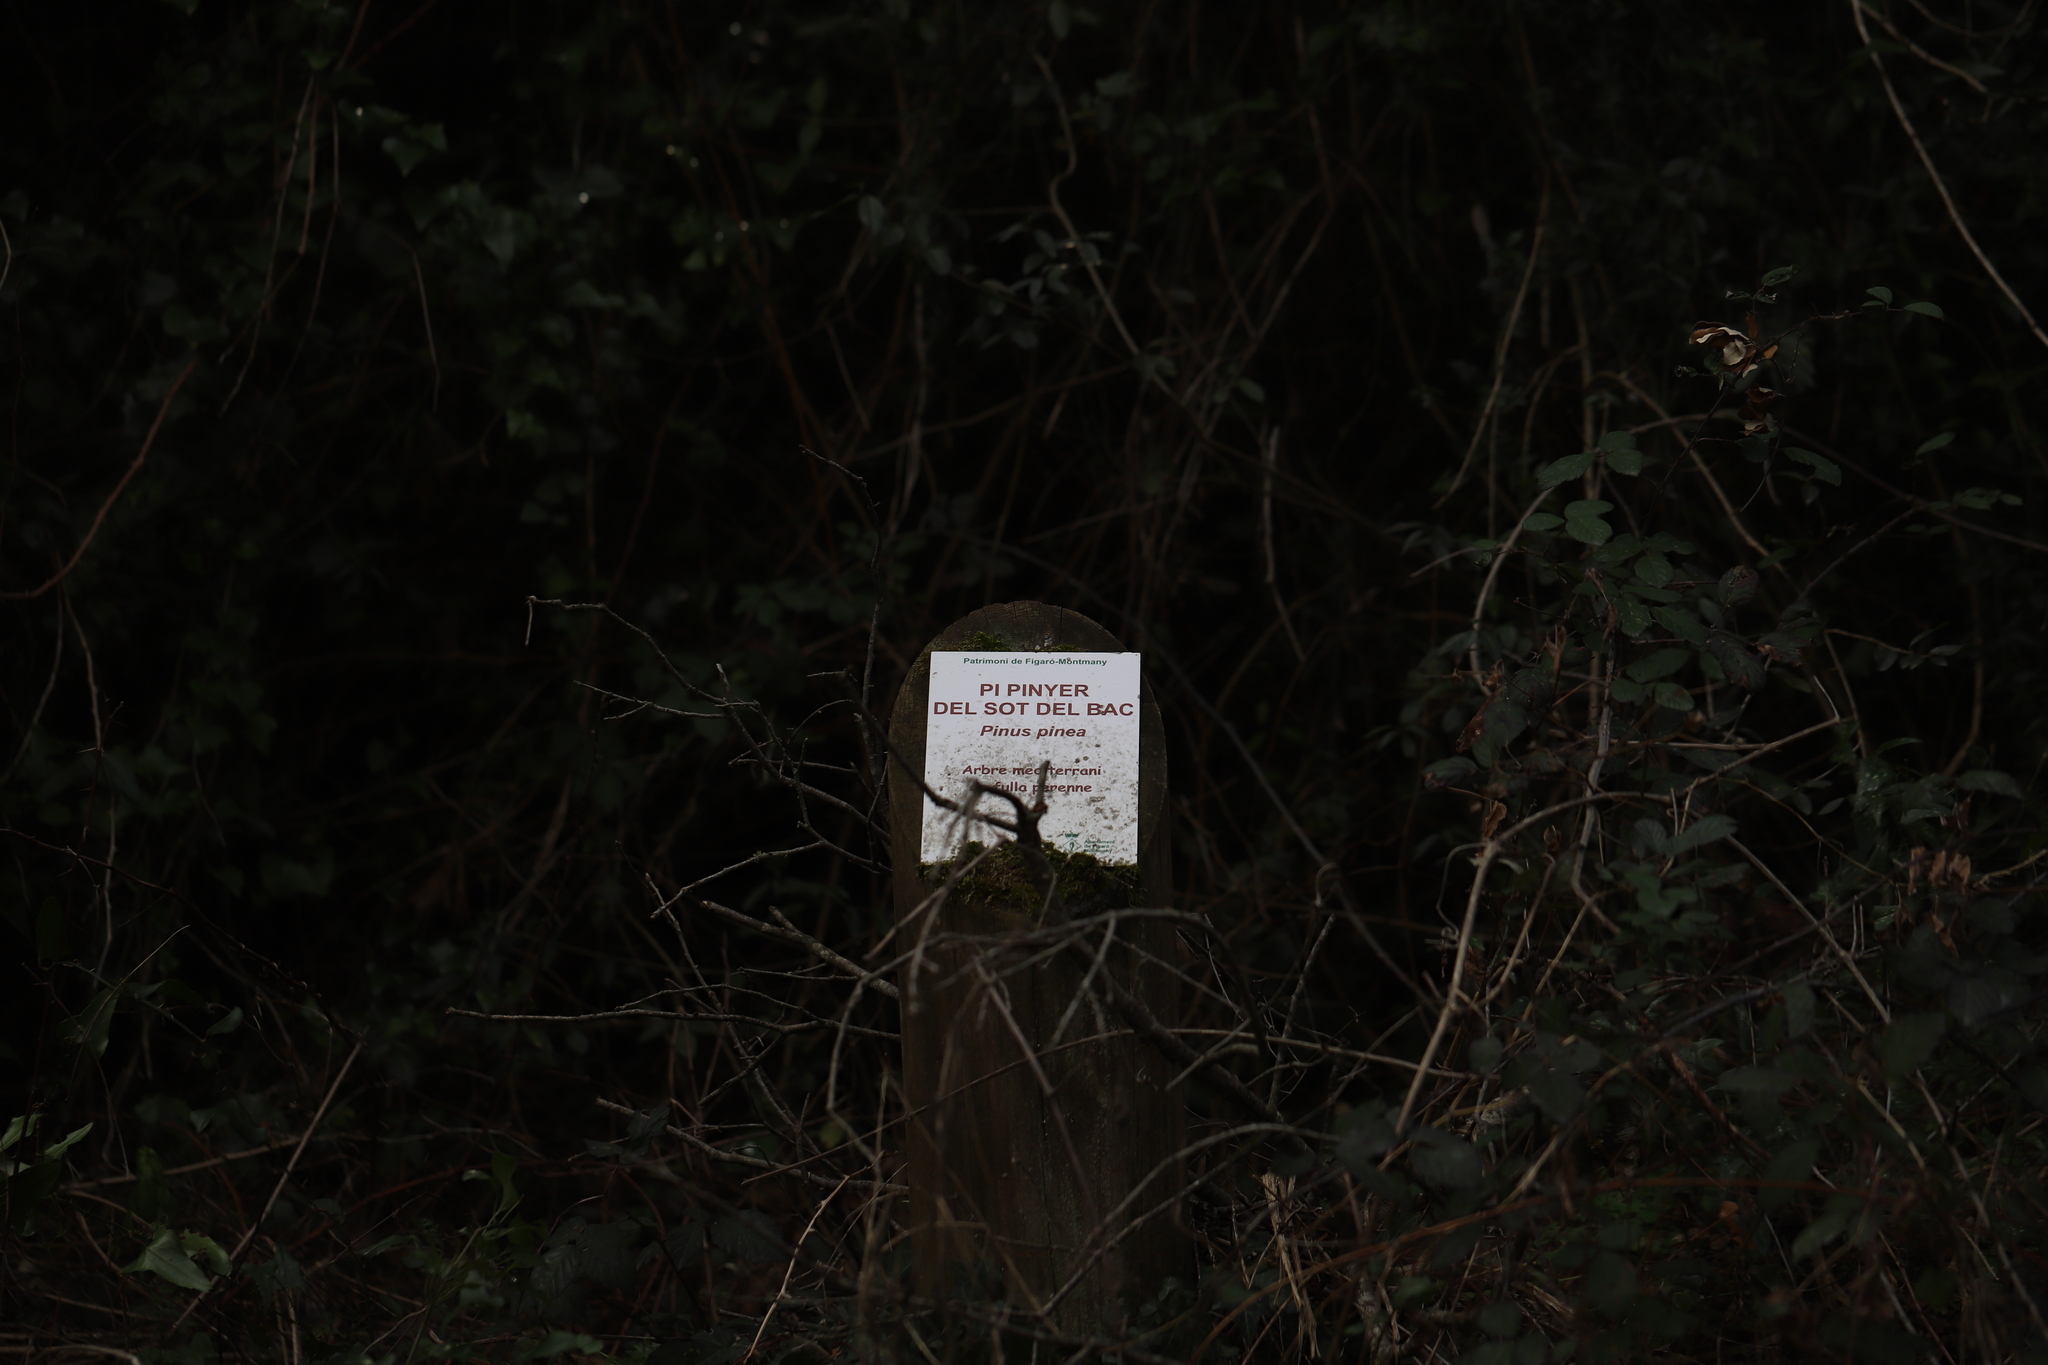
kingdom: Plantae
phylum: Tracheophyta
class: Pinopsida
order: Pinales
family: Pinaceae
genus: Pinus
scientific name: Pinus pinea
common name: Italian stone pine
